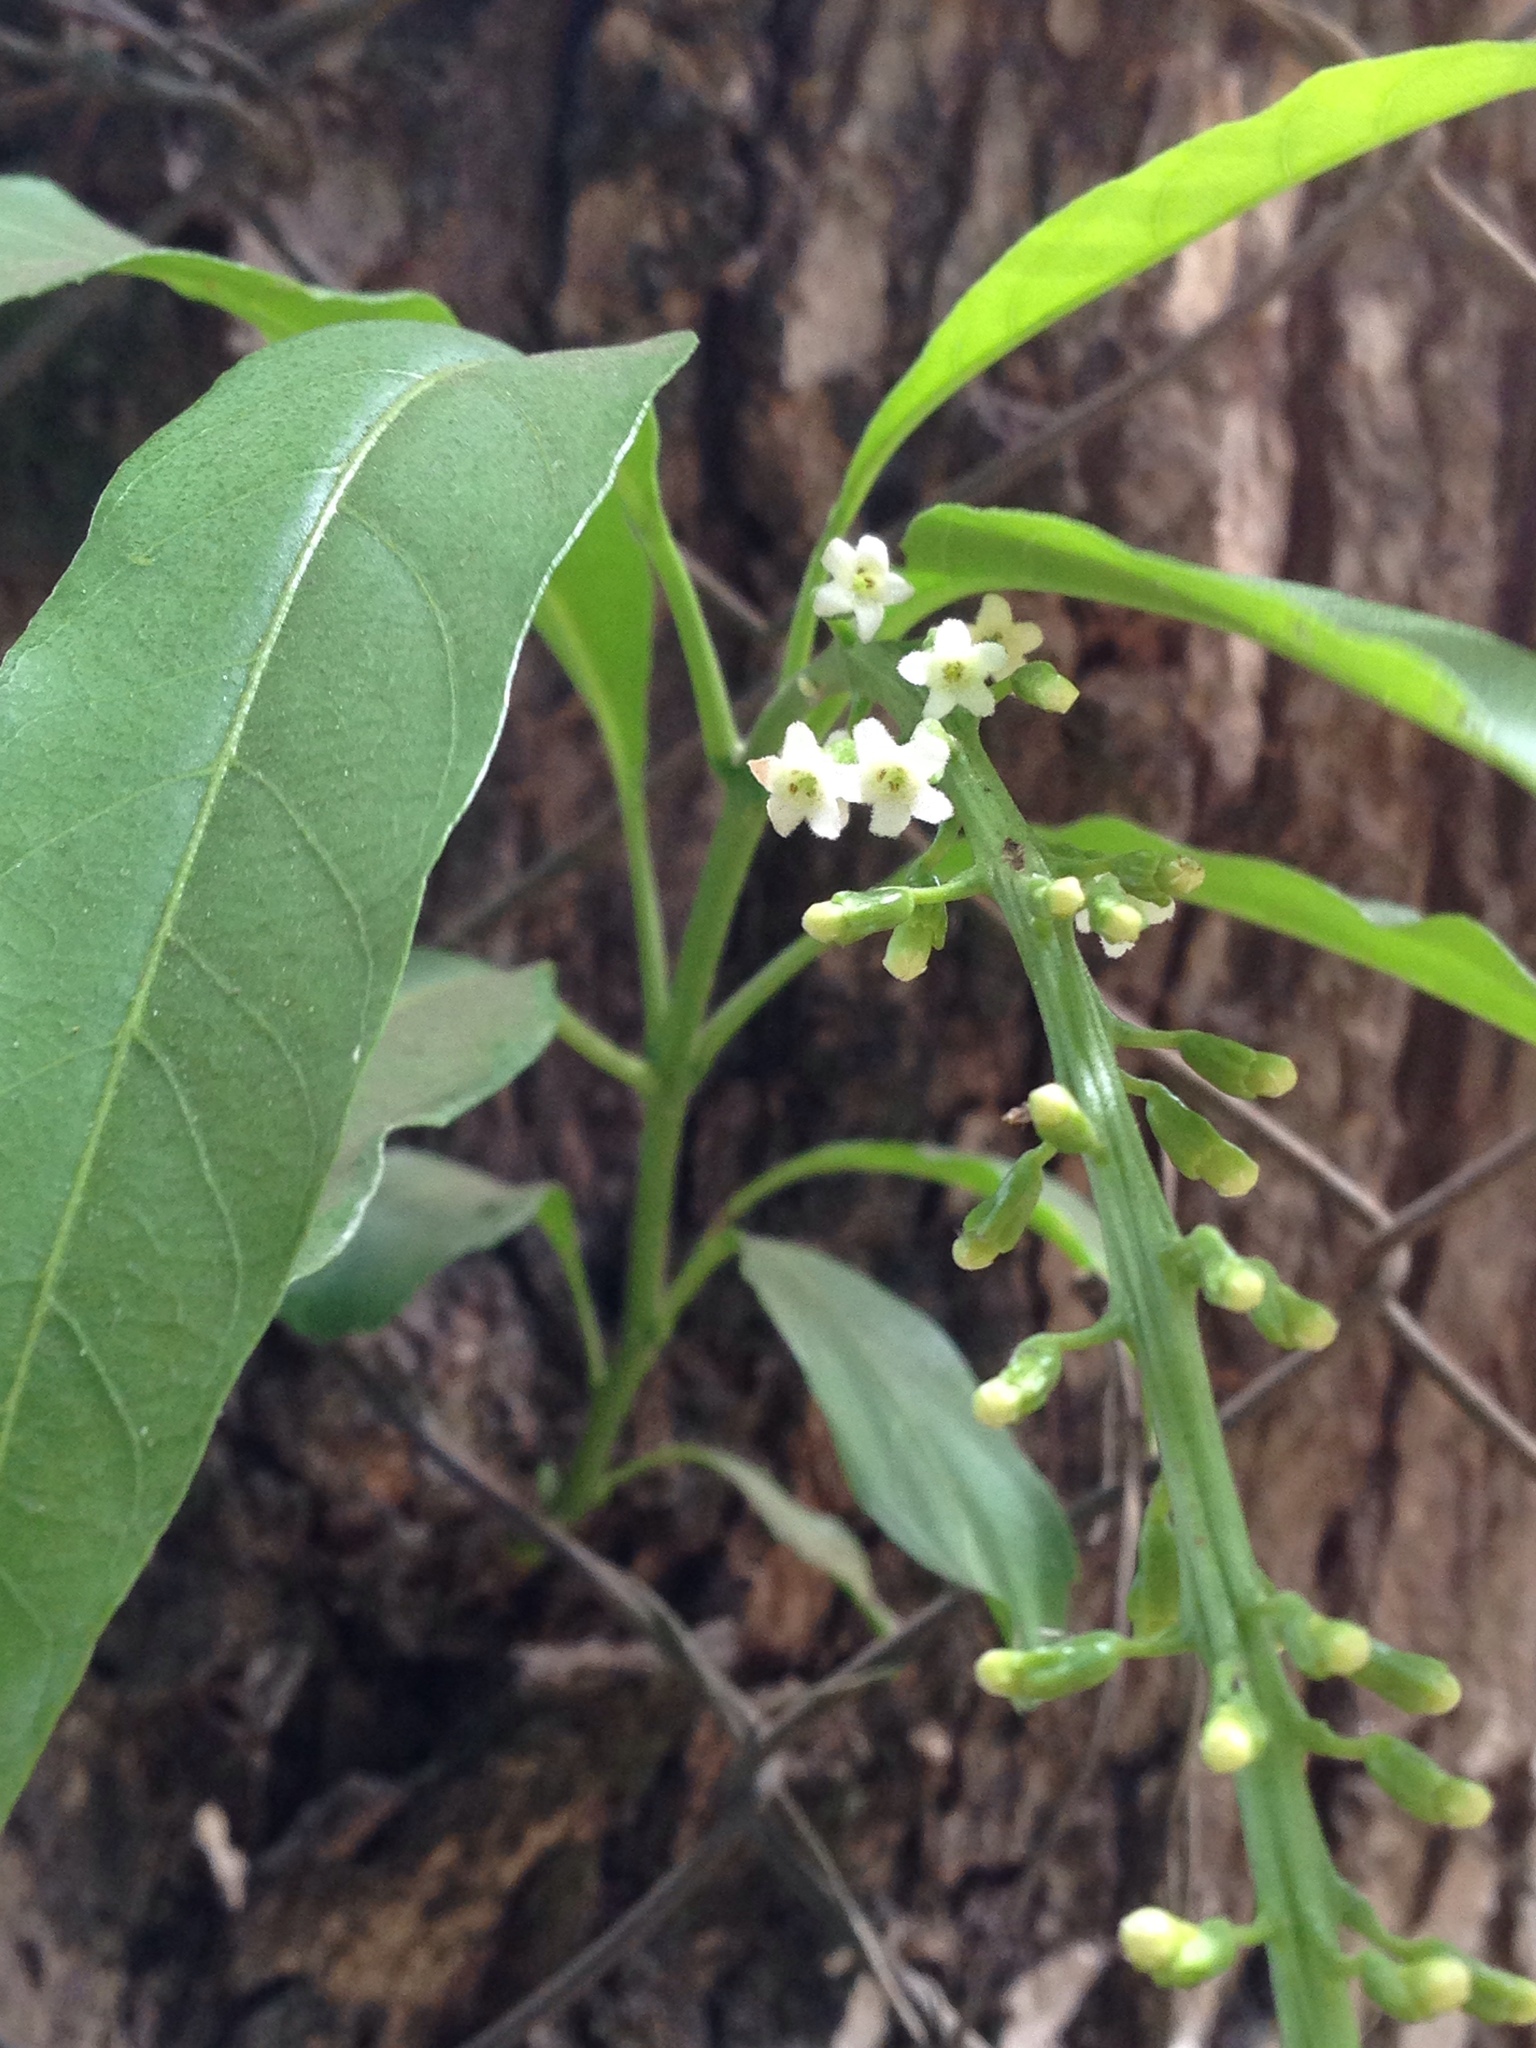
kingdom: Plantae
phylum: Tracheophyta
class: Magnoliopsida
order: Lamiales
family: Verbenaceae
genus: Citharexylum
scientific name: Citharexylum donnell-smithii
